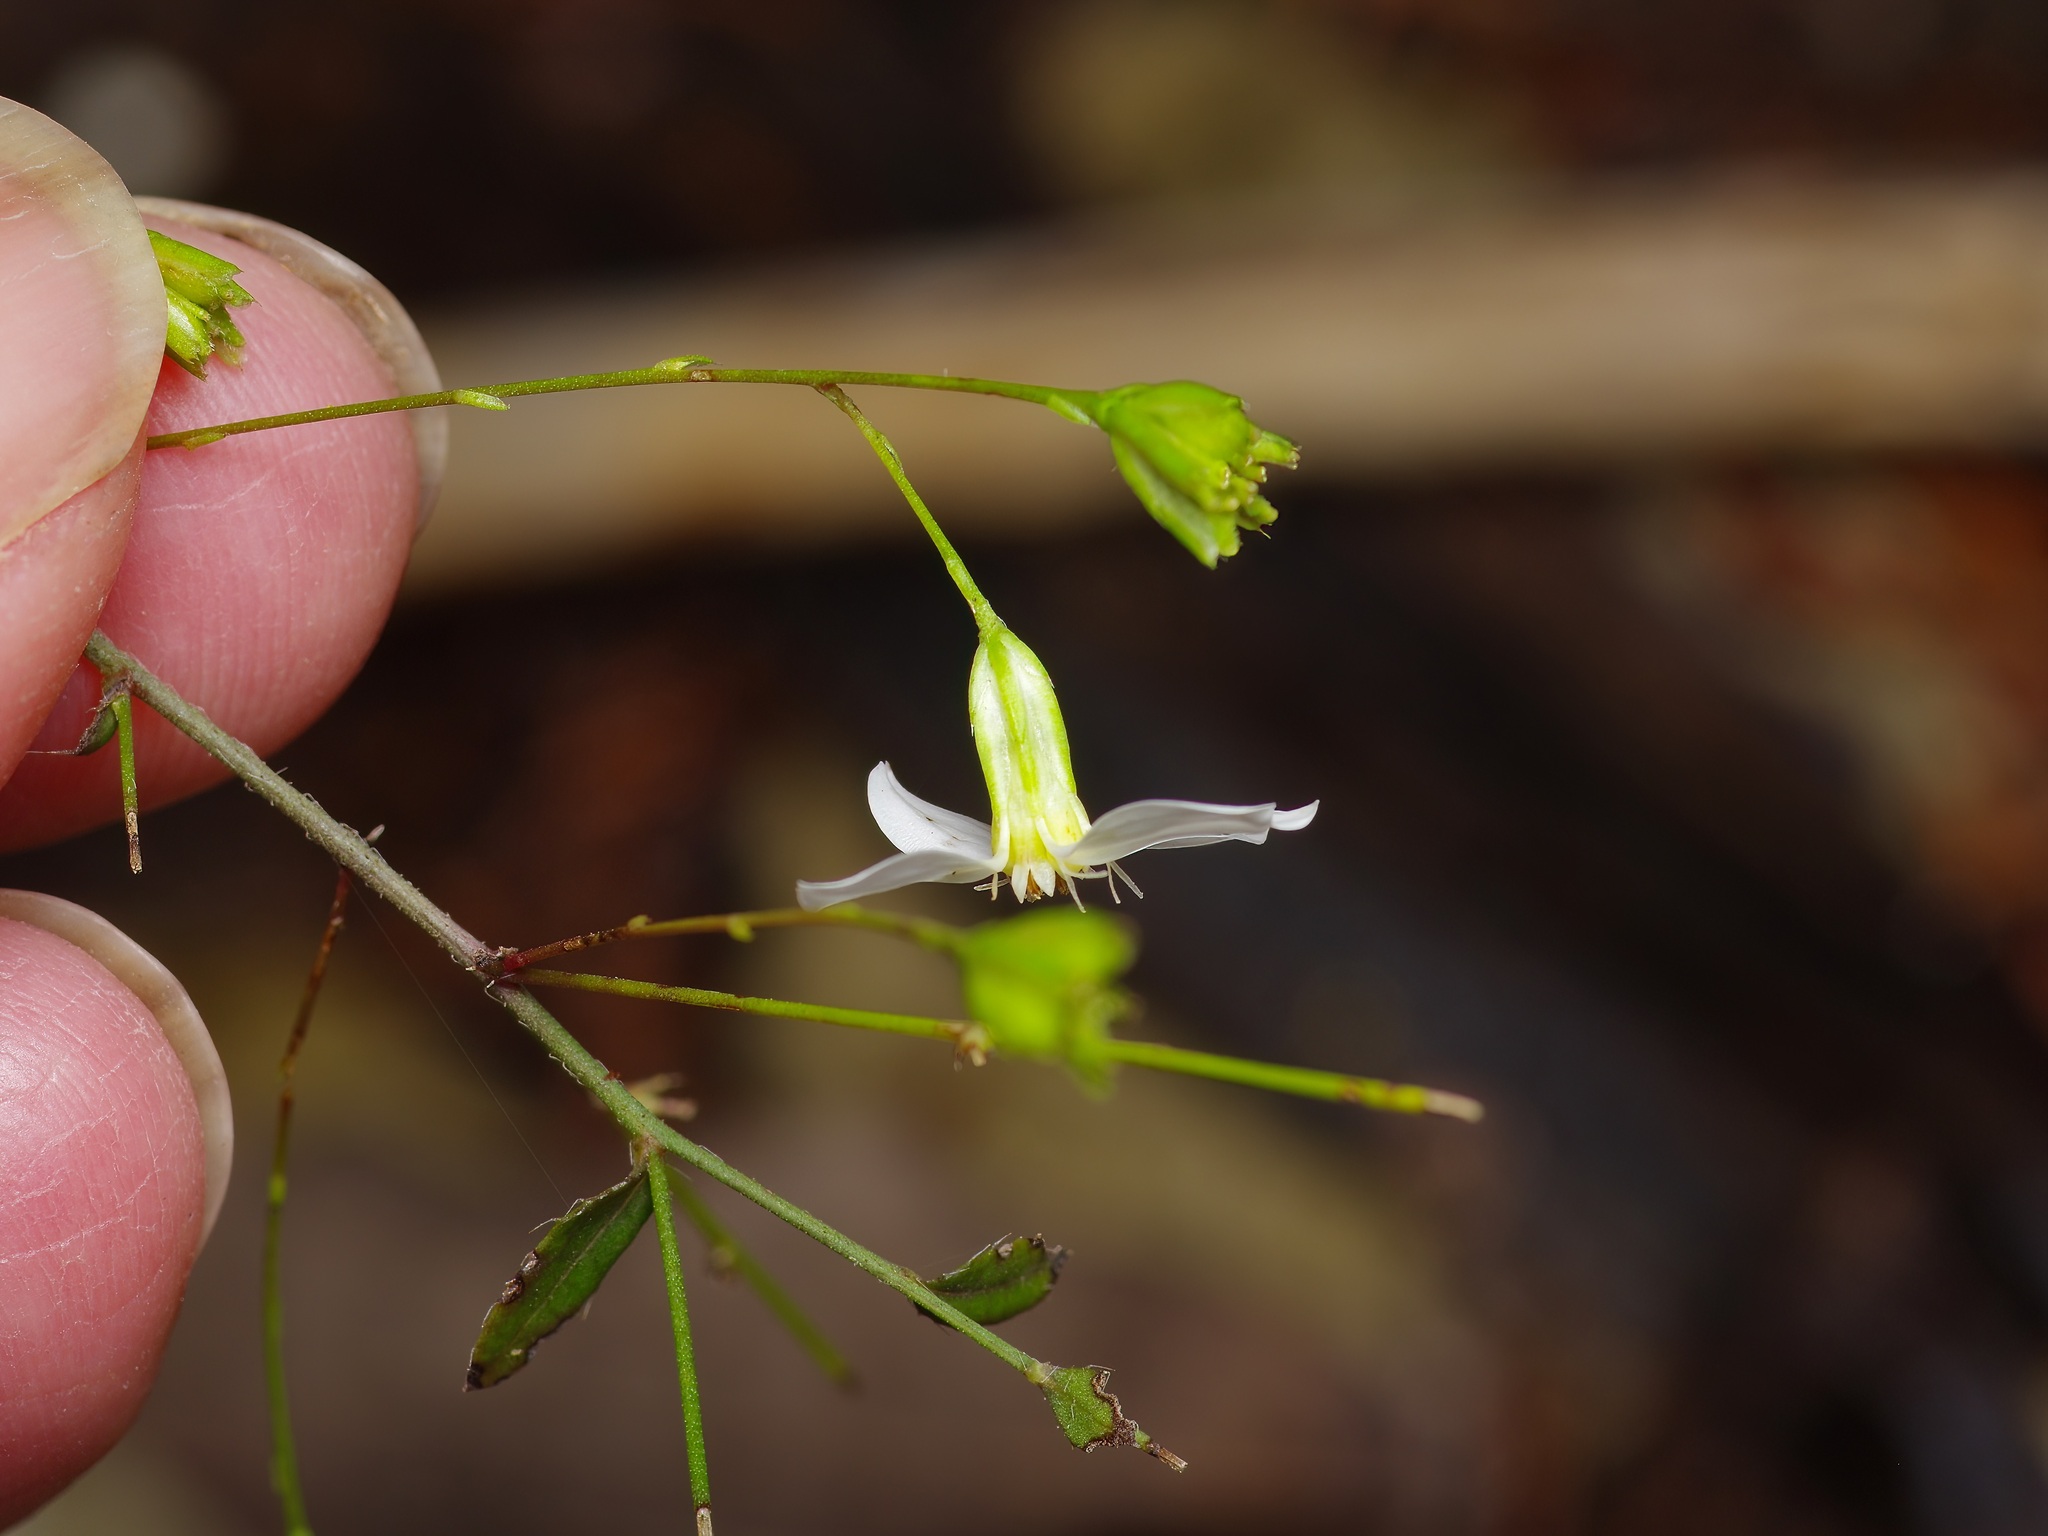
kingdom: Plantae
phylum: Tracheophyta
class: Magnoliopsida
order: Asterales
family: Asteraceae
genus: Chaetopappa
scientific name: Chaetopappa effusa
